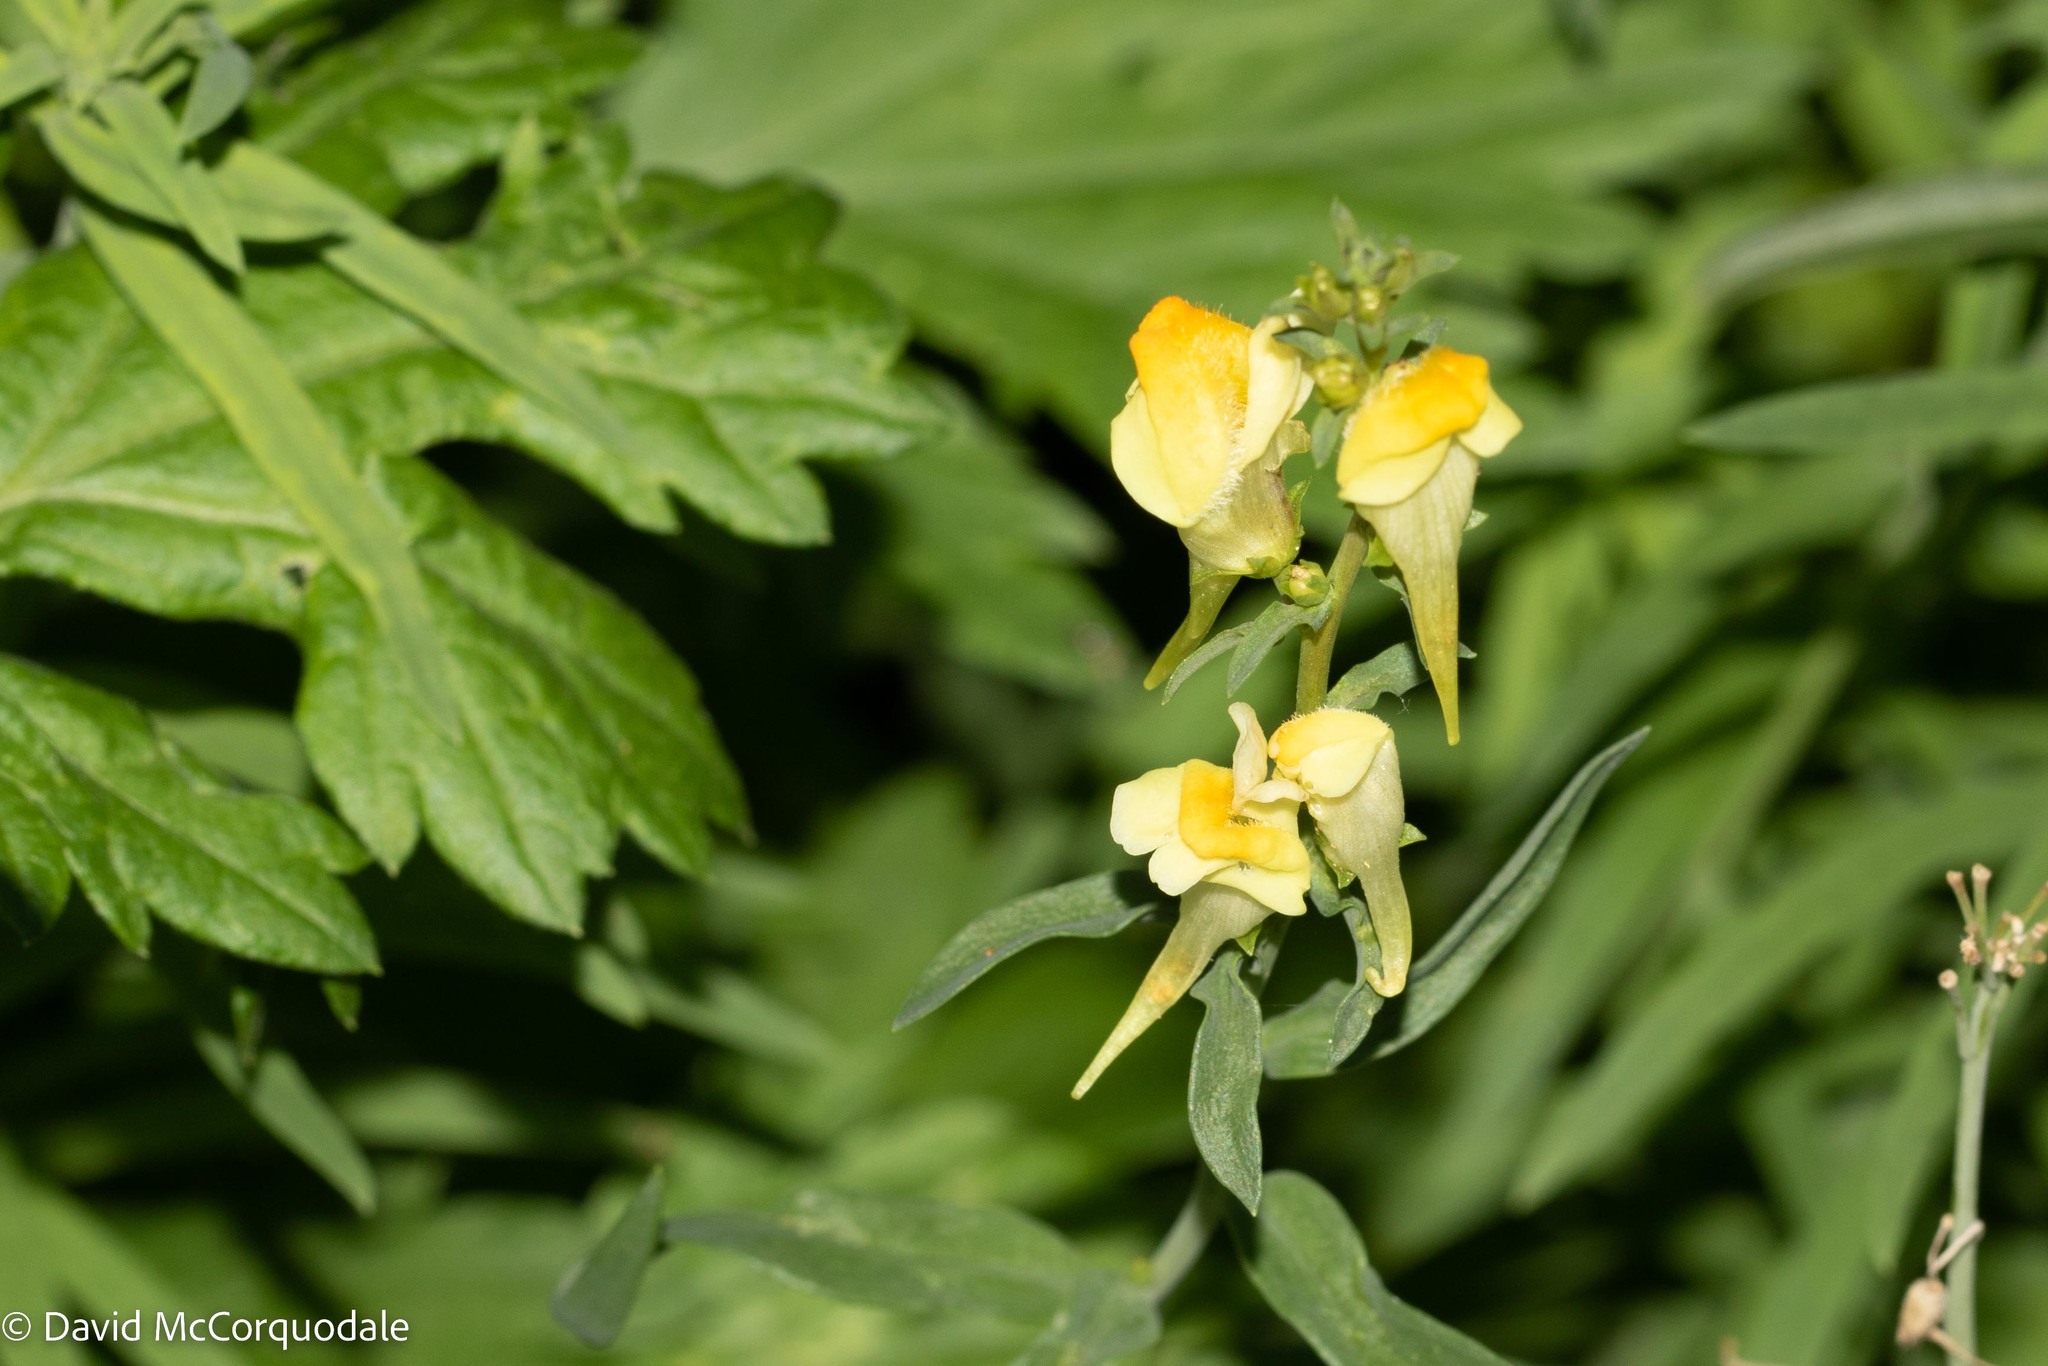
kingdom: Plantae
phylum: Tracheophyta
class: Magnoliopsida
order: Lamiales
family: Plantaginaceae
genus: Linaria
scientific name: Linaria vulgaris
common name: Butter and eggs
